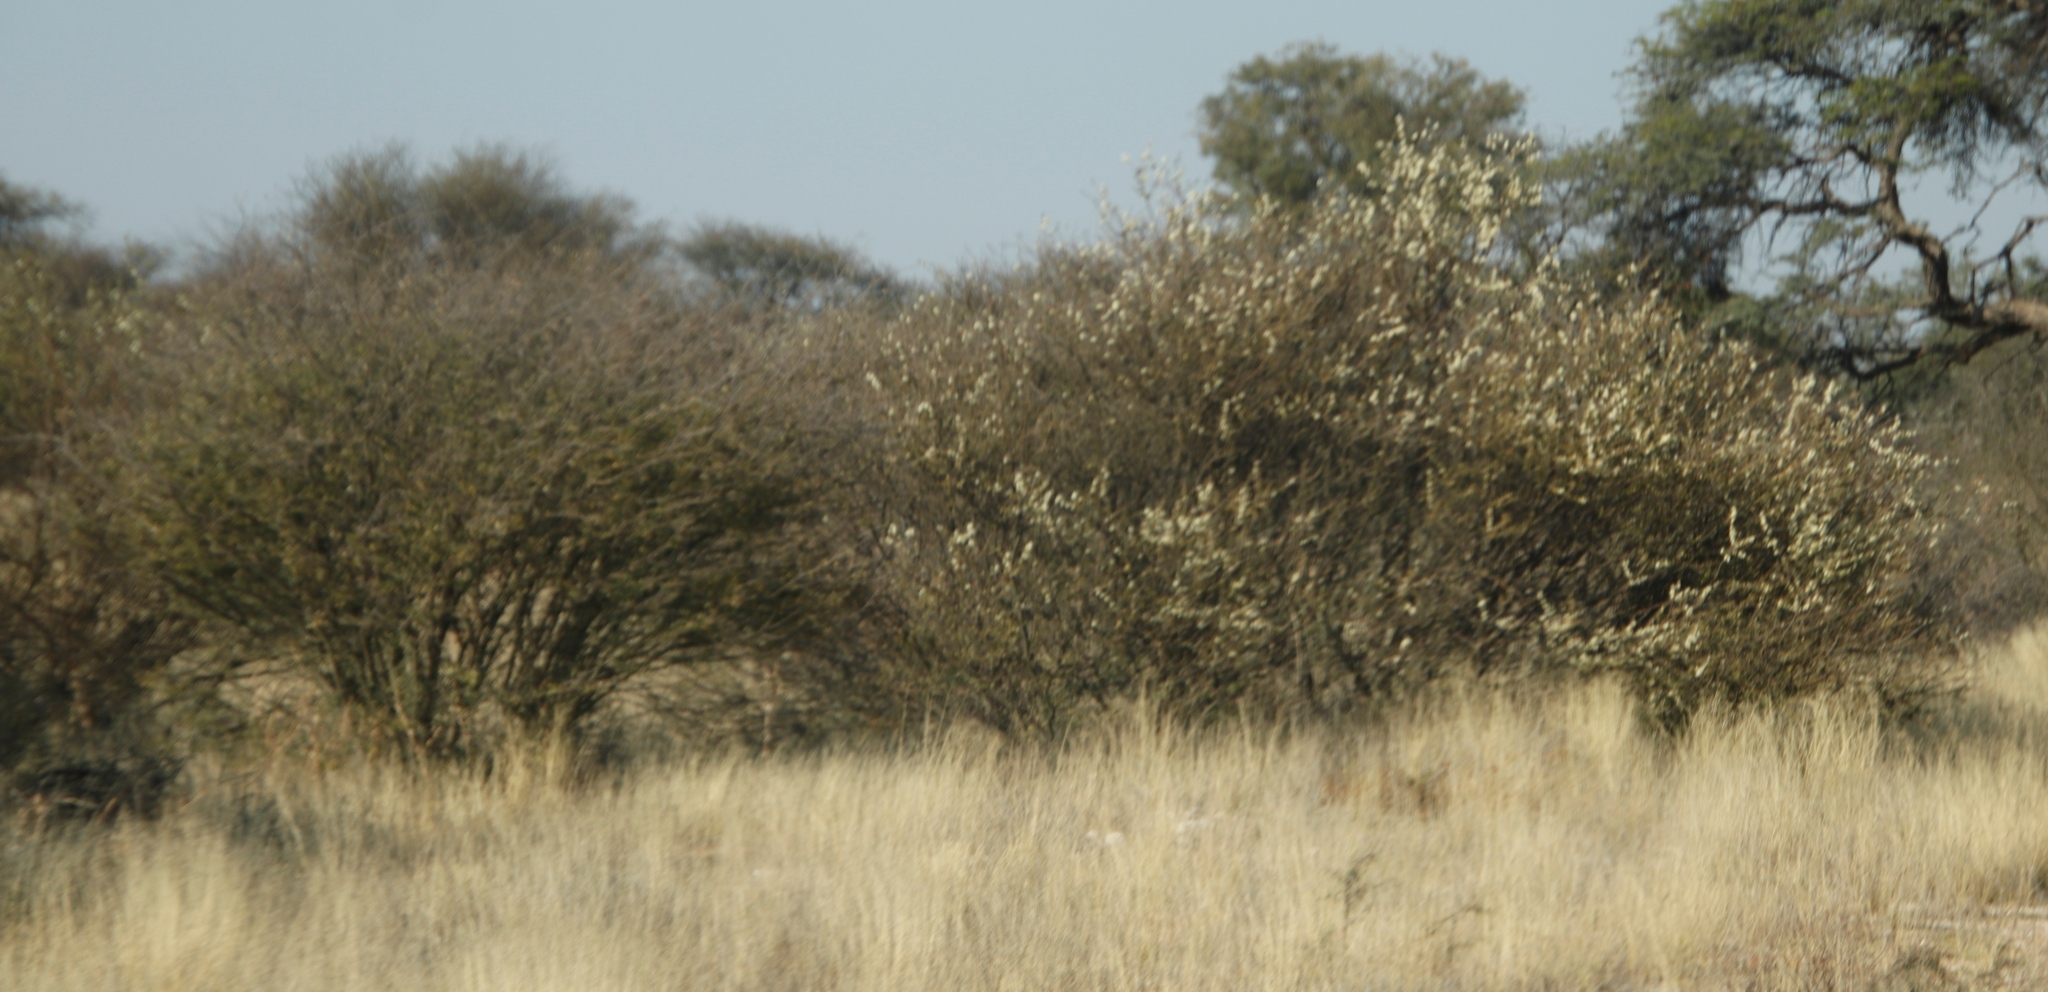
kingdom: Plantae
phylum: Tracheophyta
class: Magnoliopsida
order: Fabales
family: Fabaceae
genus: Senegalia
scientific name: Senegalia mellifera
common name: Hookthorn
